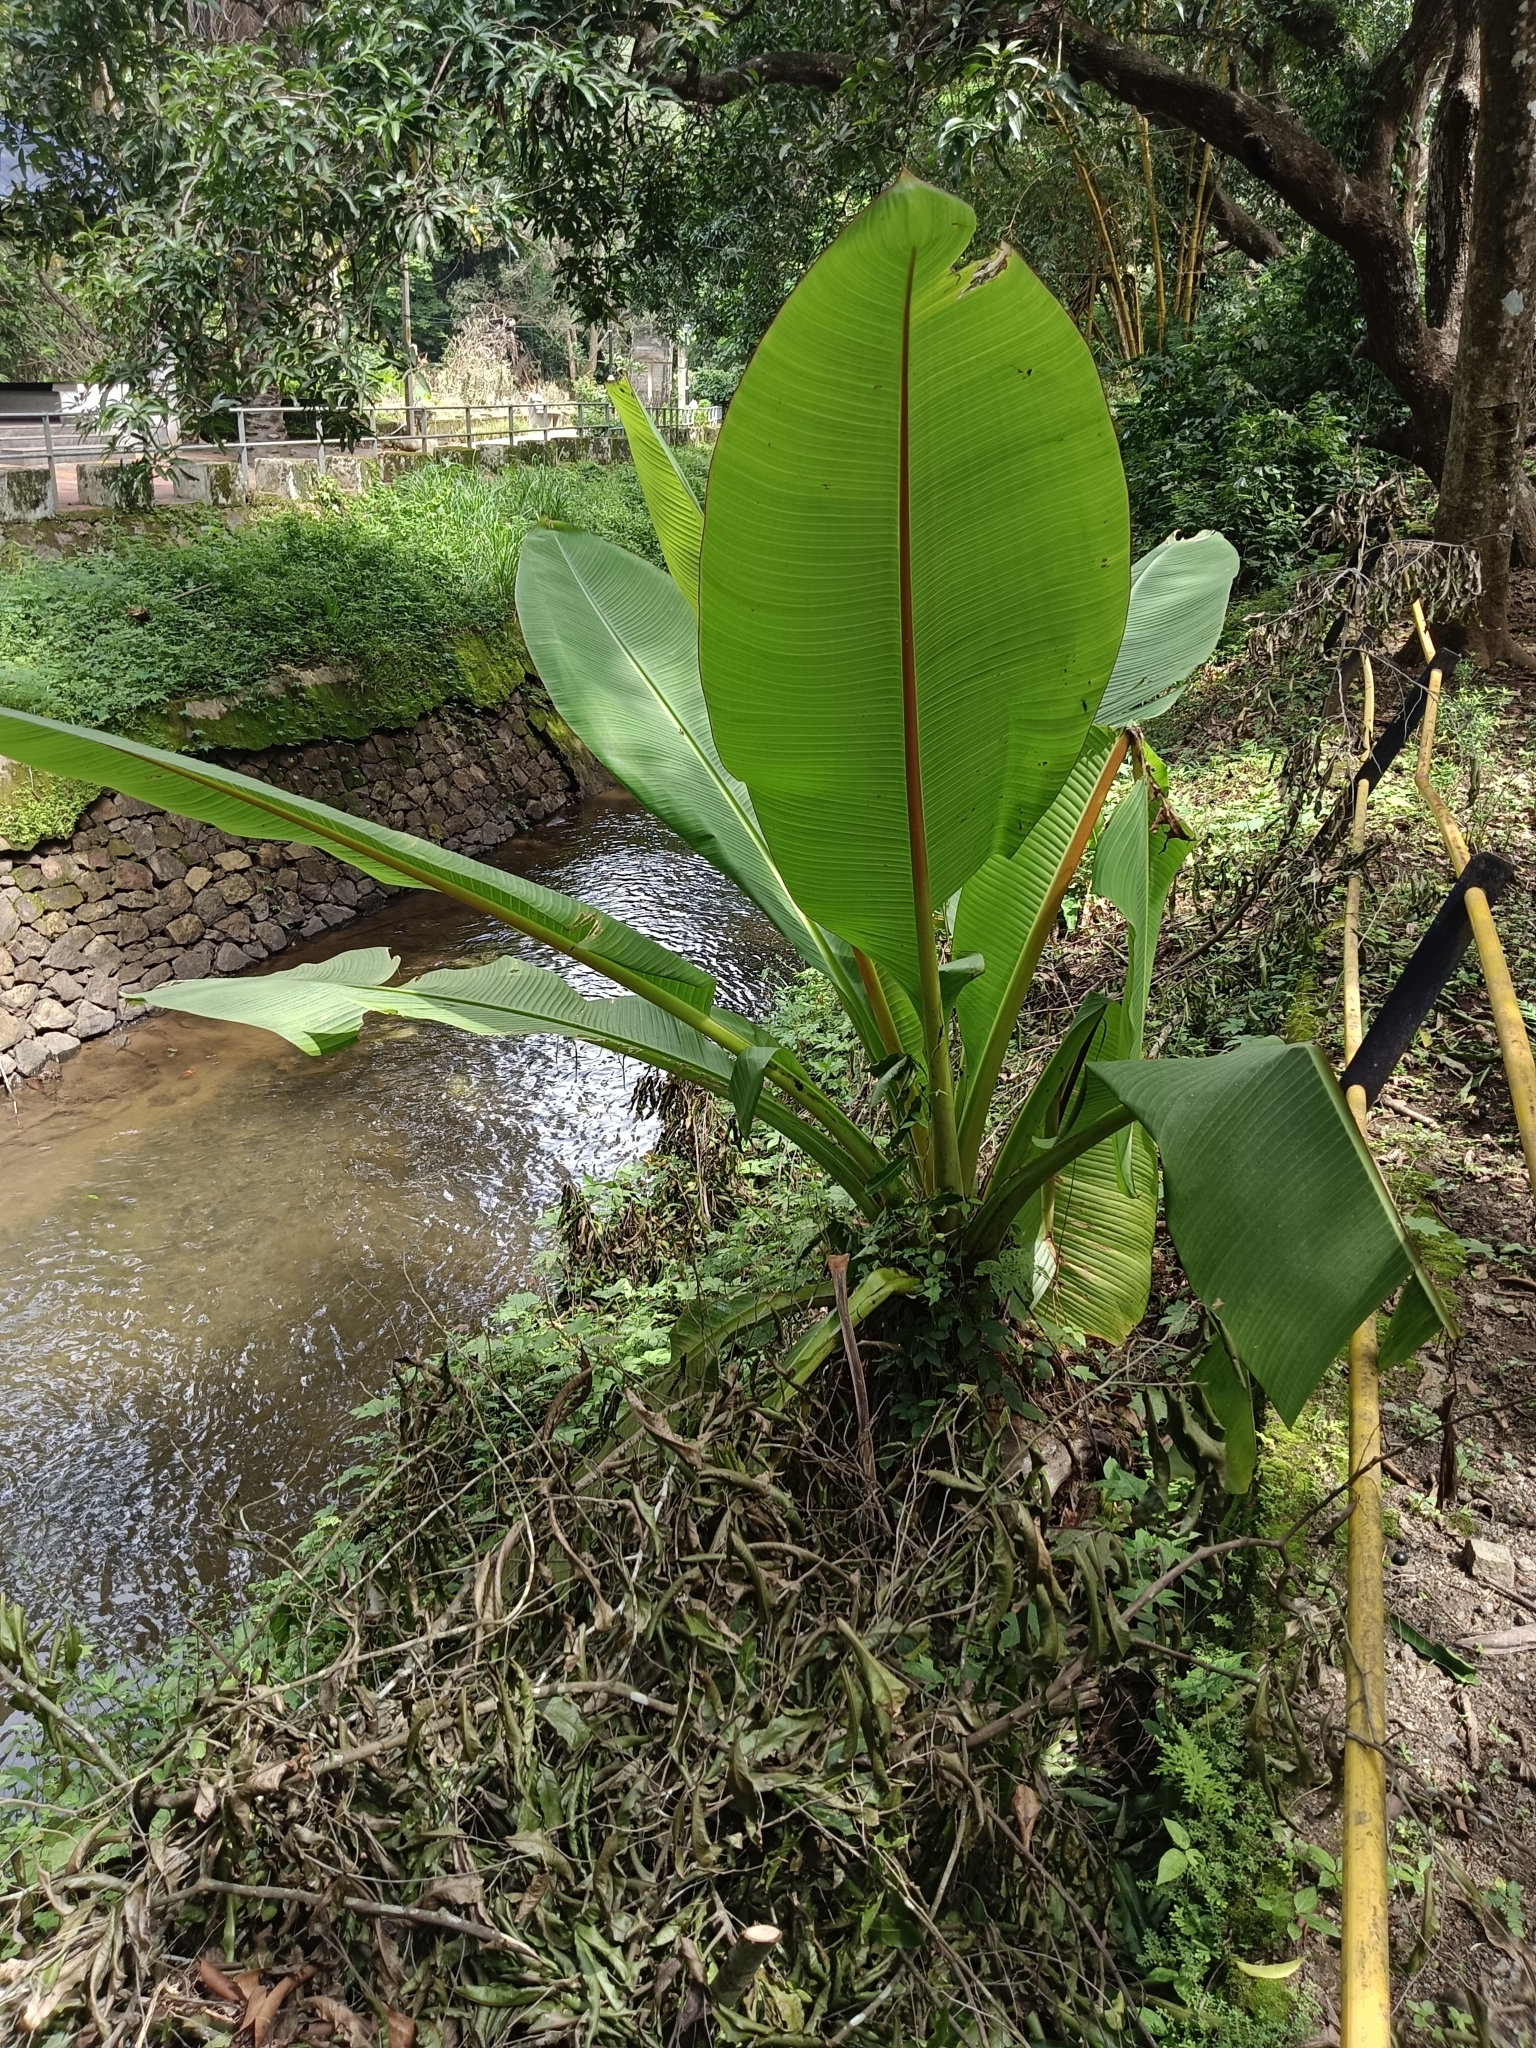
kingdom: Plantae
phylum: Tracheophyta
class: Liliopsida
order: Zingiberales
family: Musaceae
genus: Ensete
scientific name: Ensete superbum
